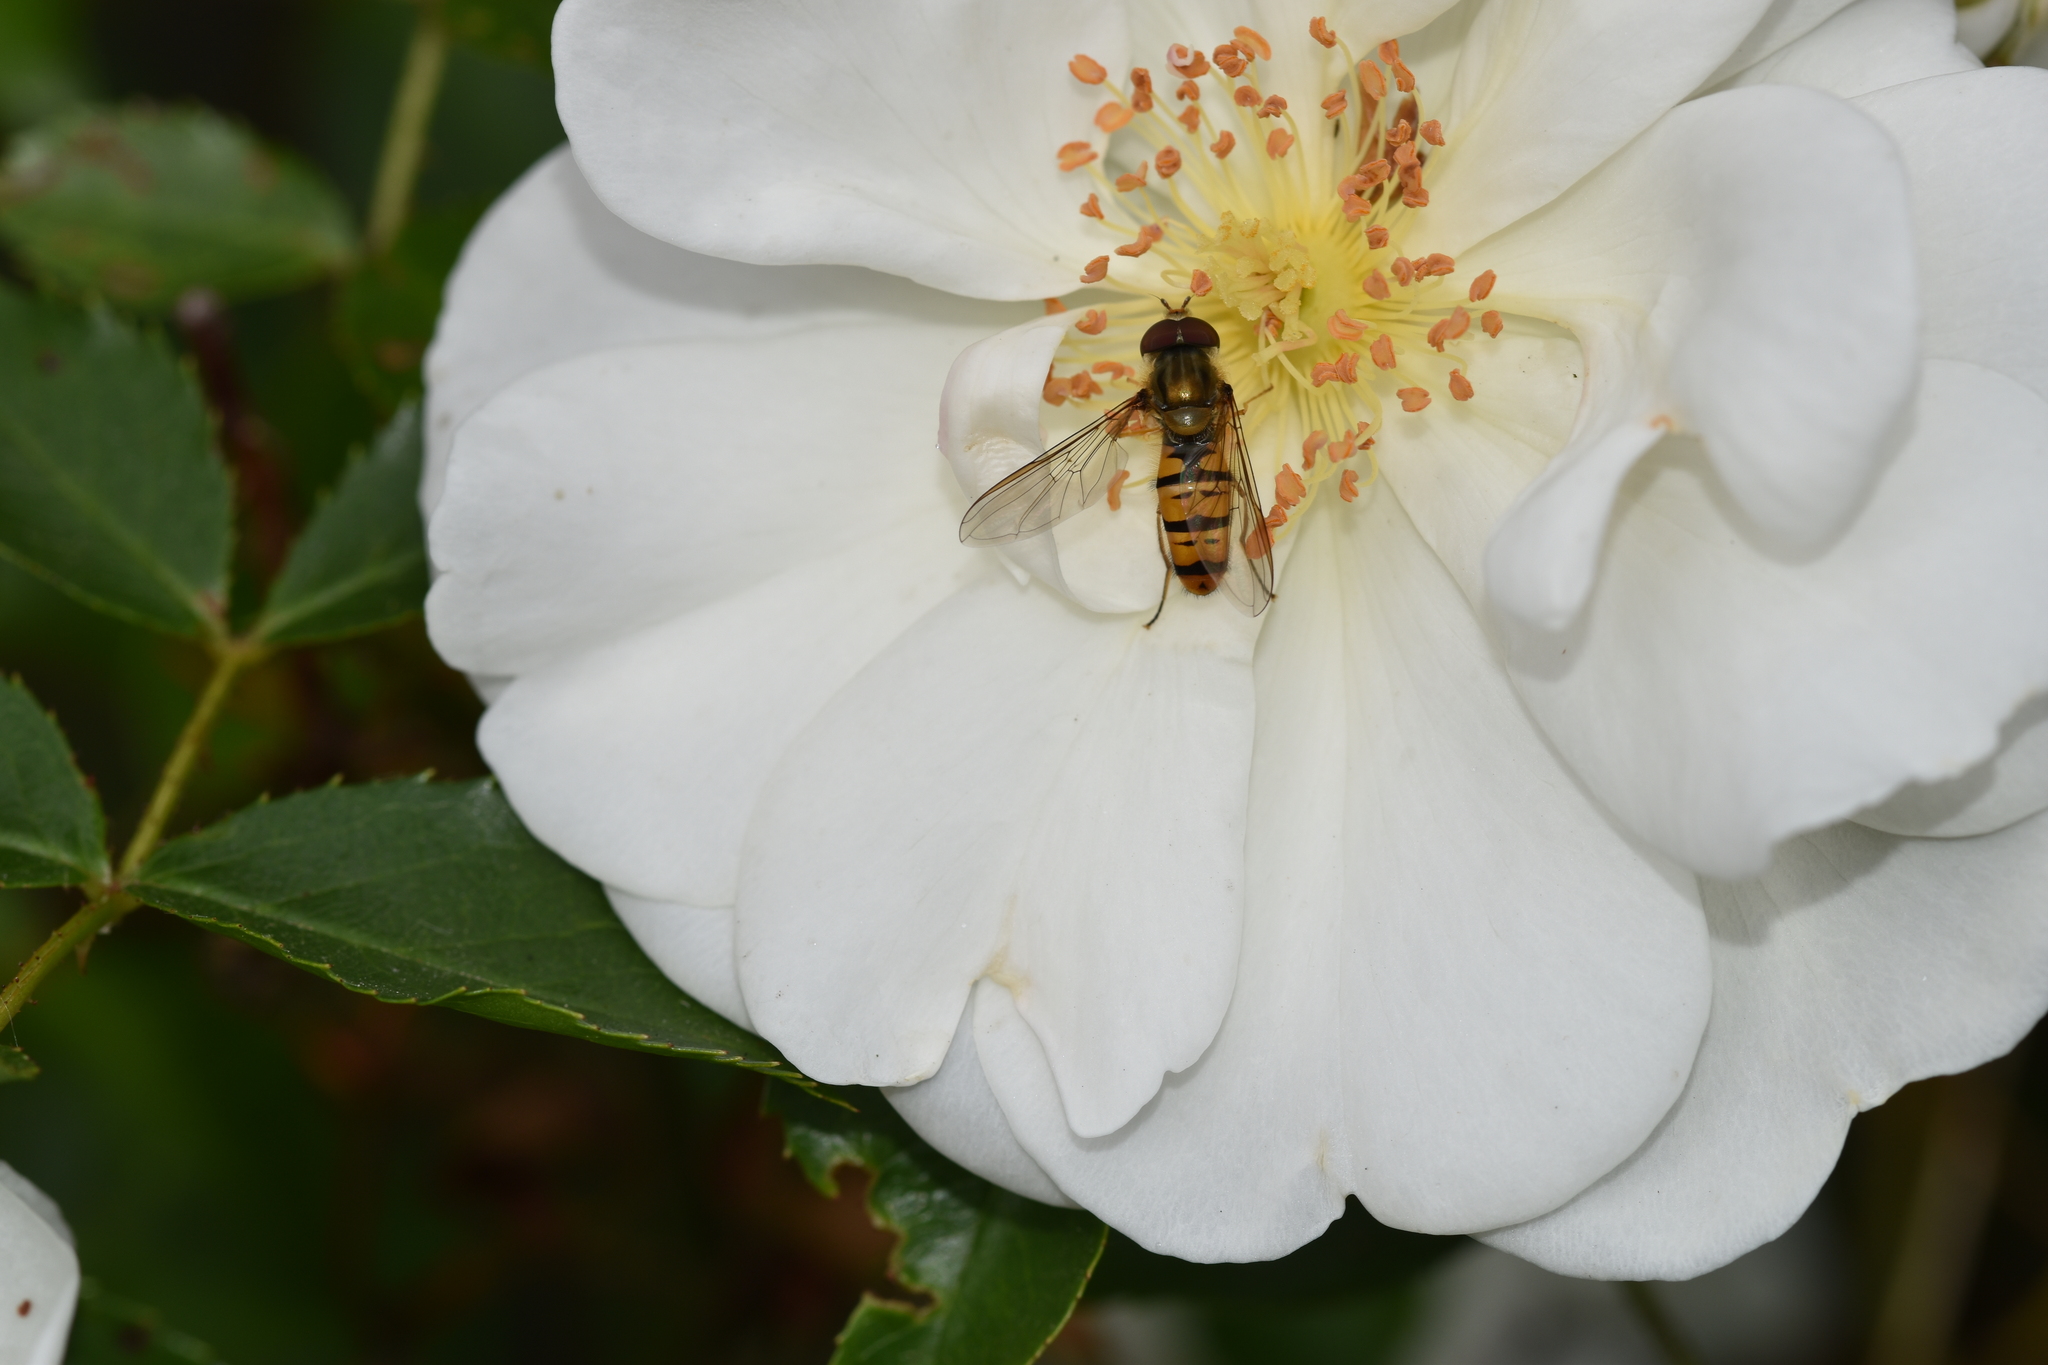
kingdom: Animalia
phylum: Arthropoda
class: Insecta
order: Diptera
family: Syrphidae
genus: Episyrphus
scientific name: Episyrphus balteatus
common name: Marmalade hoverfly
